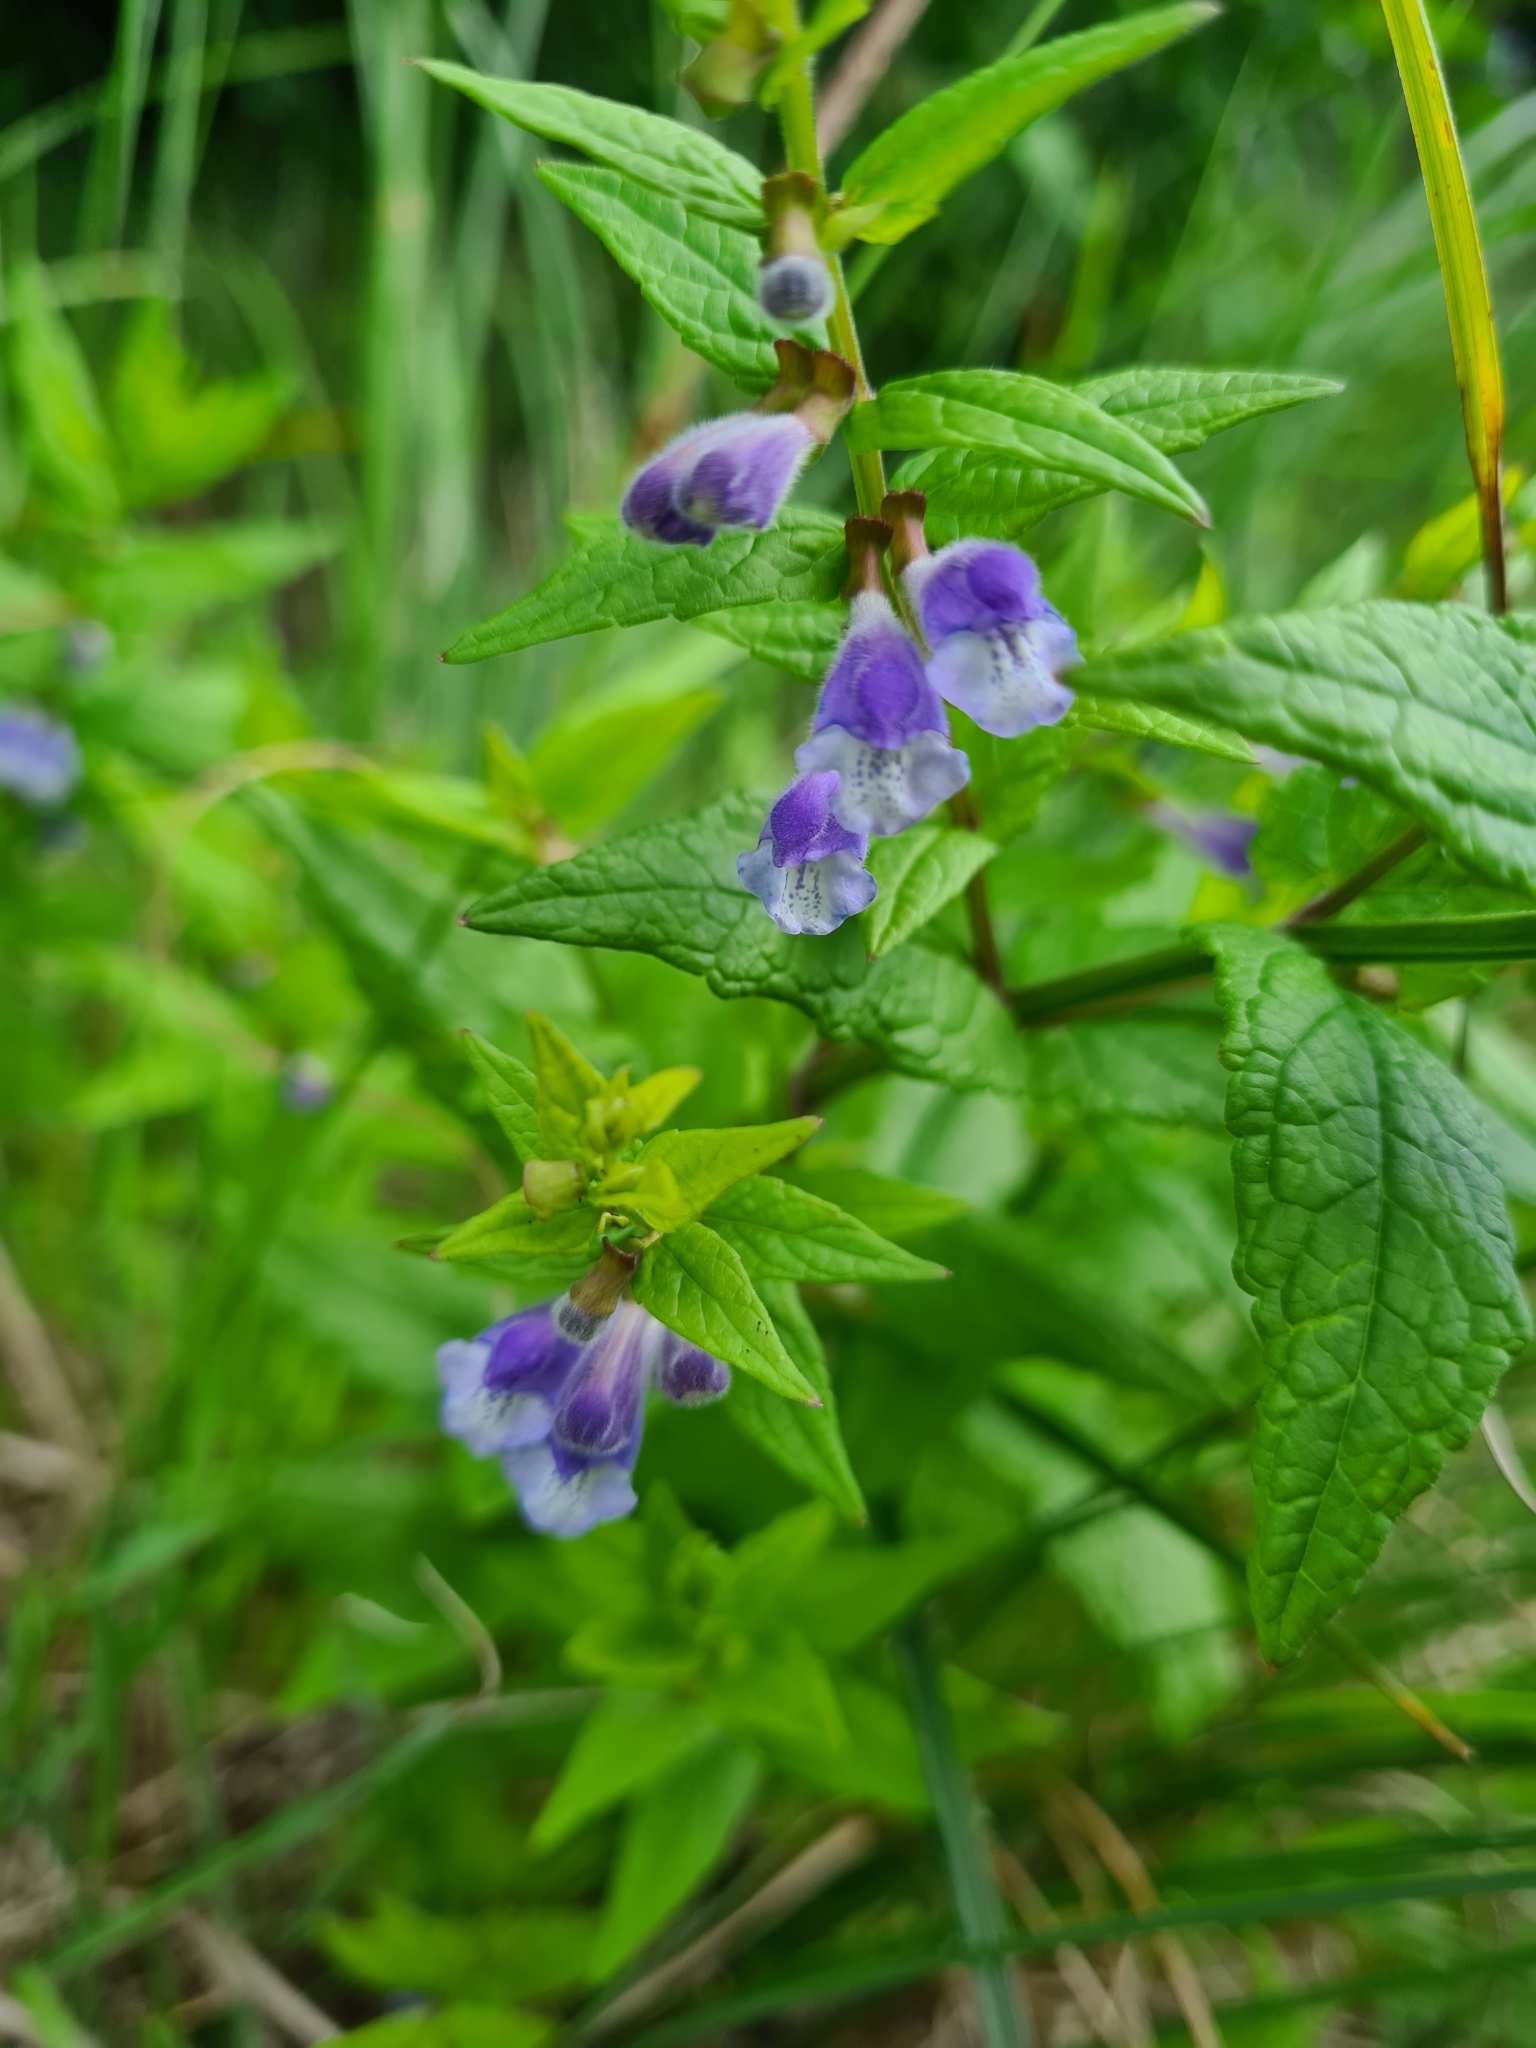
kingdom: Plantae
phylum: Tracheophyta
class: Magnoliopsida
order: Lamiales
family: Lamiaceae
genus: Scutellaria
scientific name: Scutellaria galericulata
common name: Skullcap
